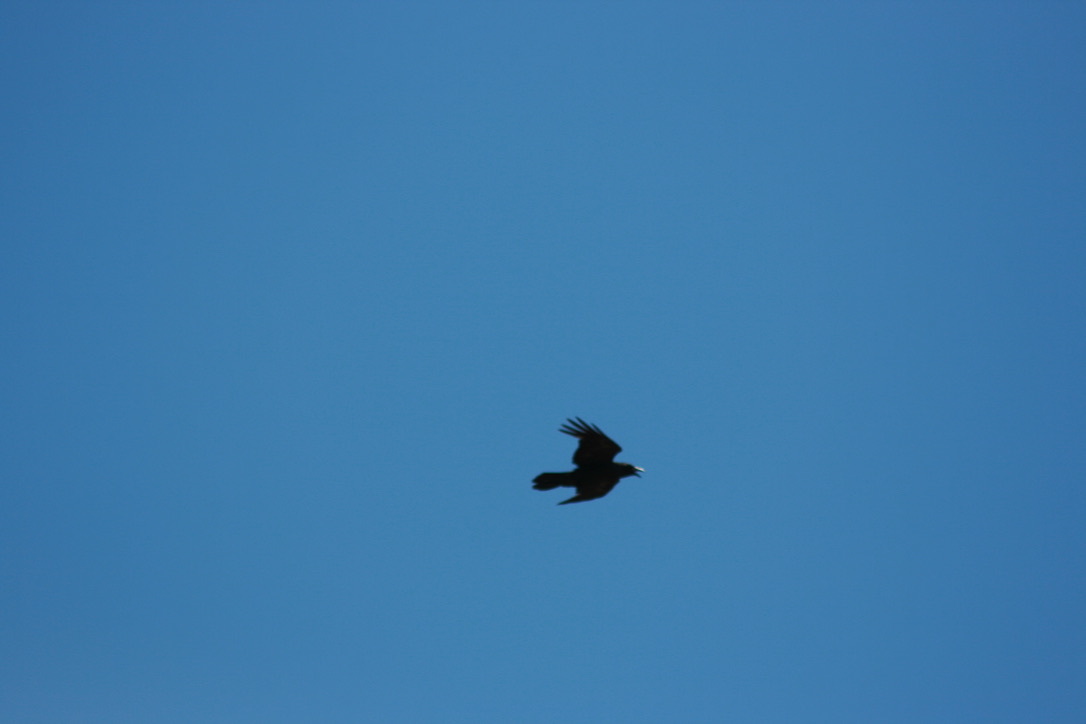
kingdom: Animalia
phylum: Chordata
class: Aves
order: Passeriformes
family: Corvidae
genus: Corvus
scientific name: Corvus corax
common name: Common raven
